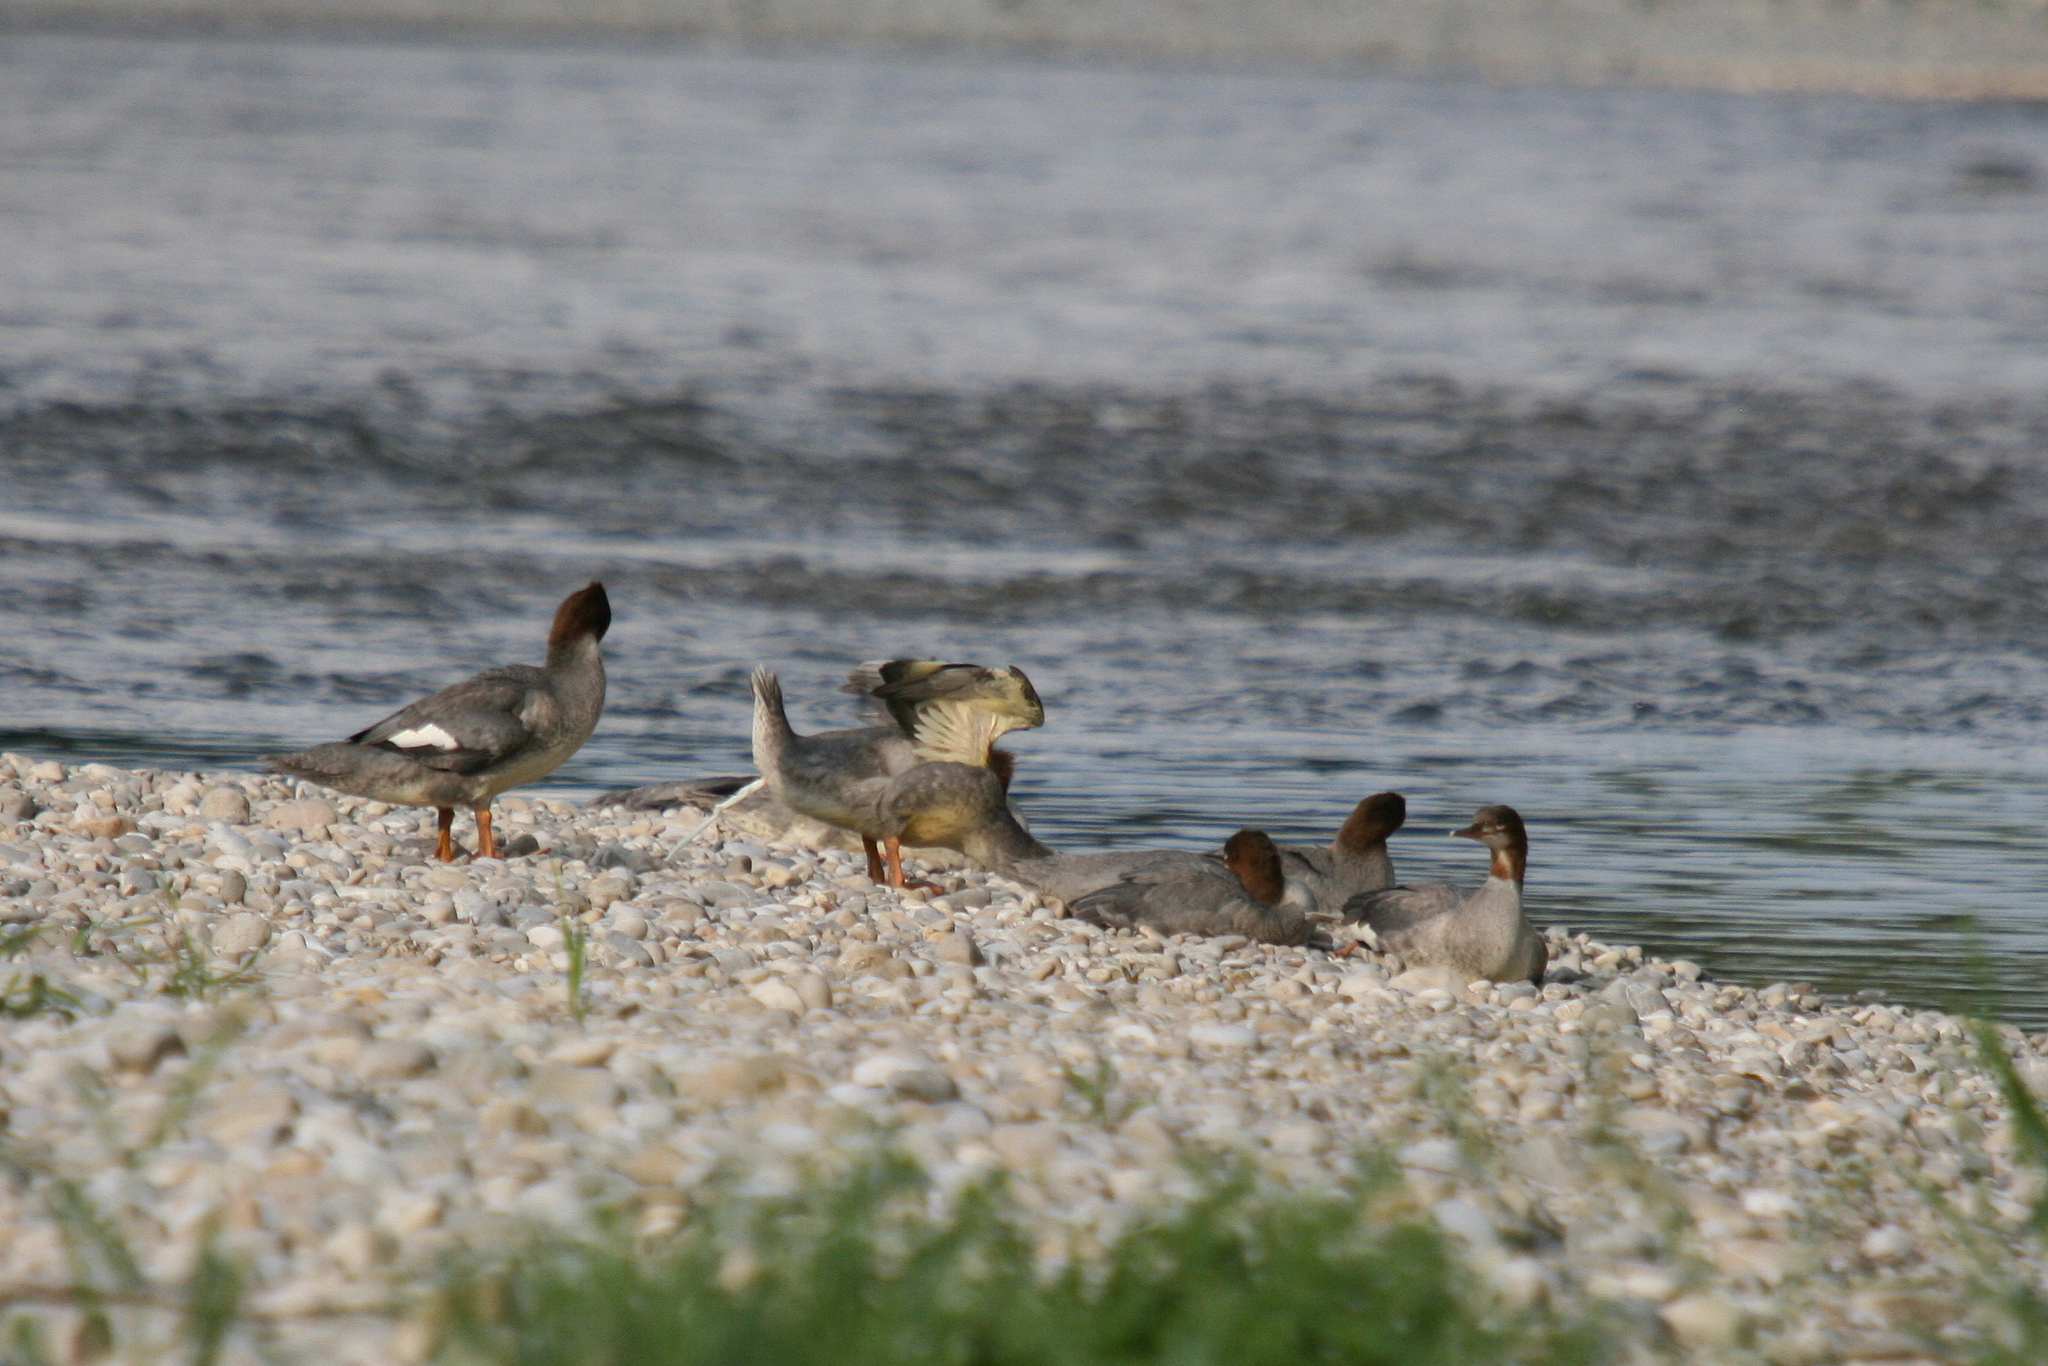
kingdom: Animalia
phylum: Chordata
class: Aves
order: Anseriformes
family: Anatidae
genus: Mergus
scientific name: Mergus merganser
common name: Common merganser
